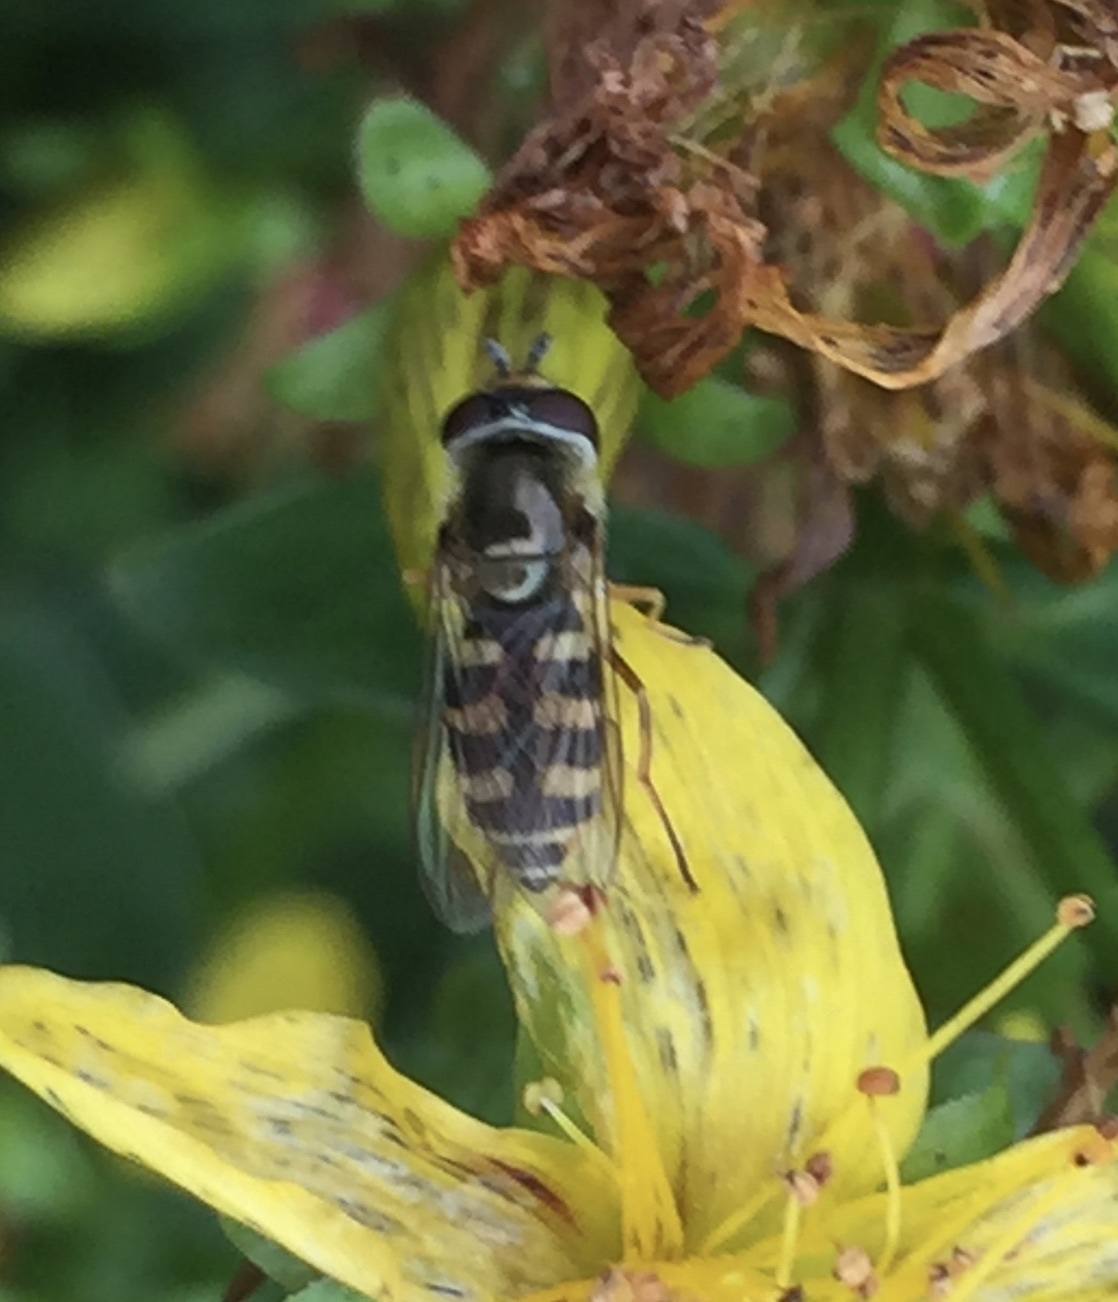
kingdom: Animalia
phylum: Arthropoda
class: Insecta
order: Diptera
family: Syrphidae
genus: Eupeodes
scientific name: Eupeodes
